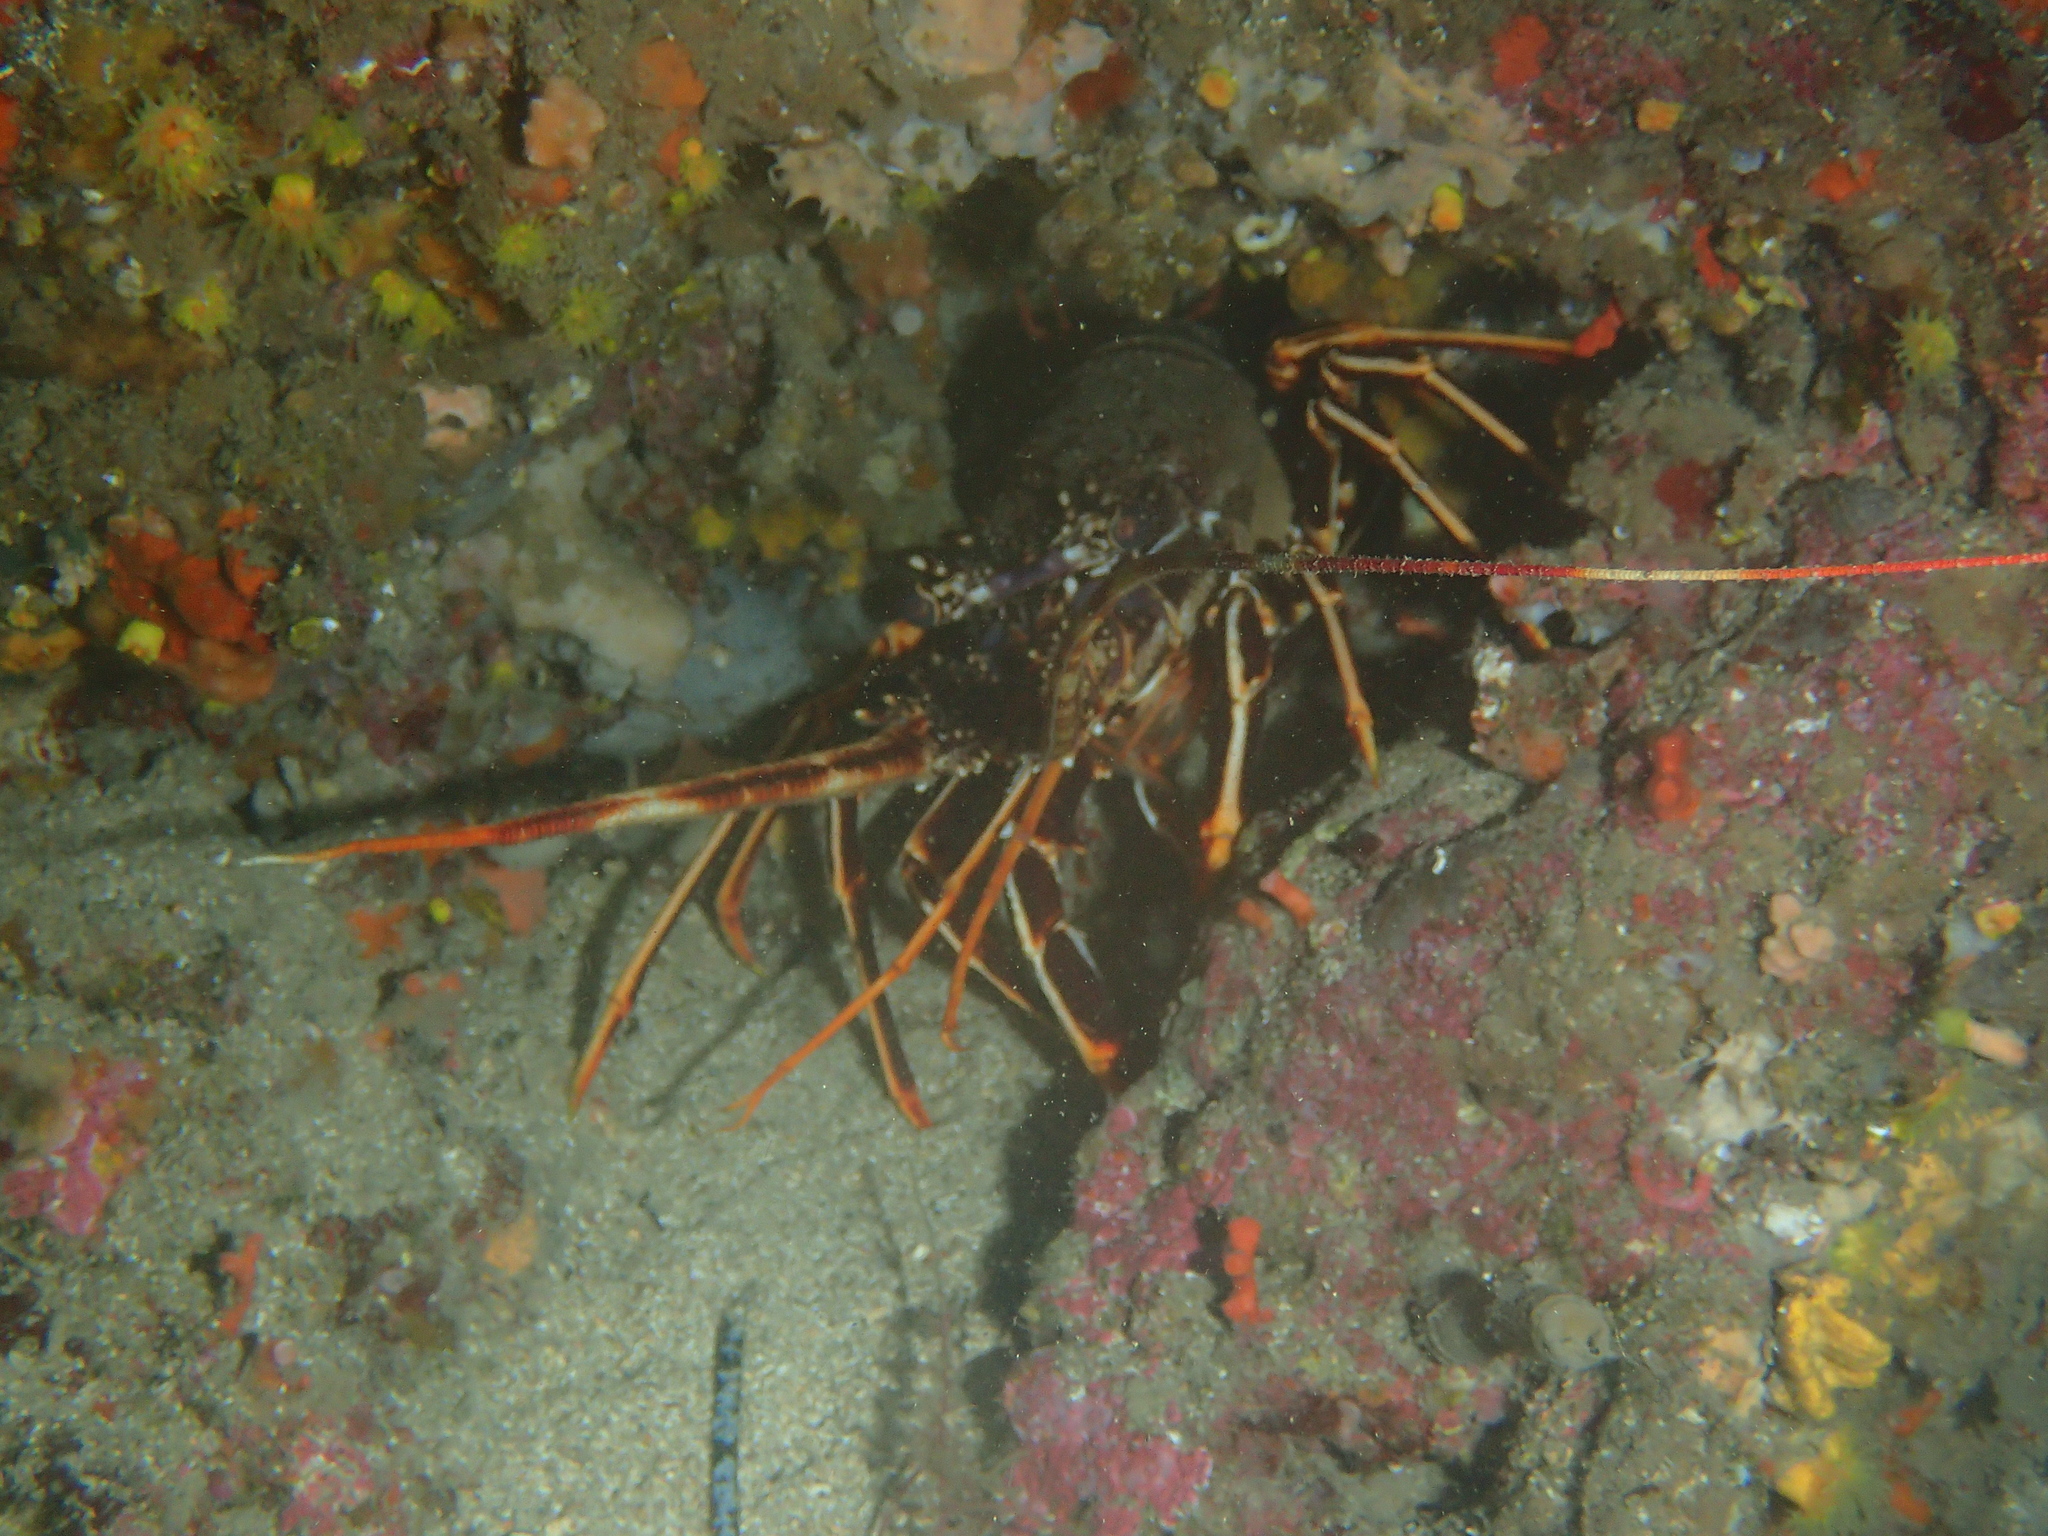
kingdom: Animalia
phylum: Arthropoda
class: Malacostraca
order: Decapoda
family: Palinuridae
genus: Palinurus
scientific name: Palinurus elephas
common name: European spiny lobster
